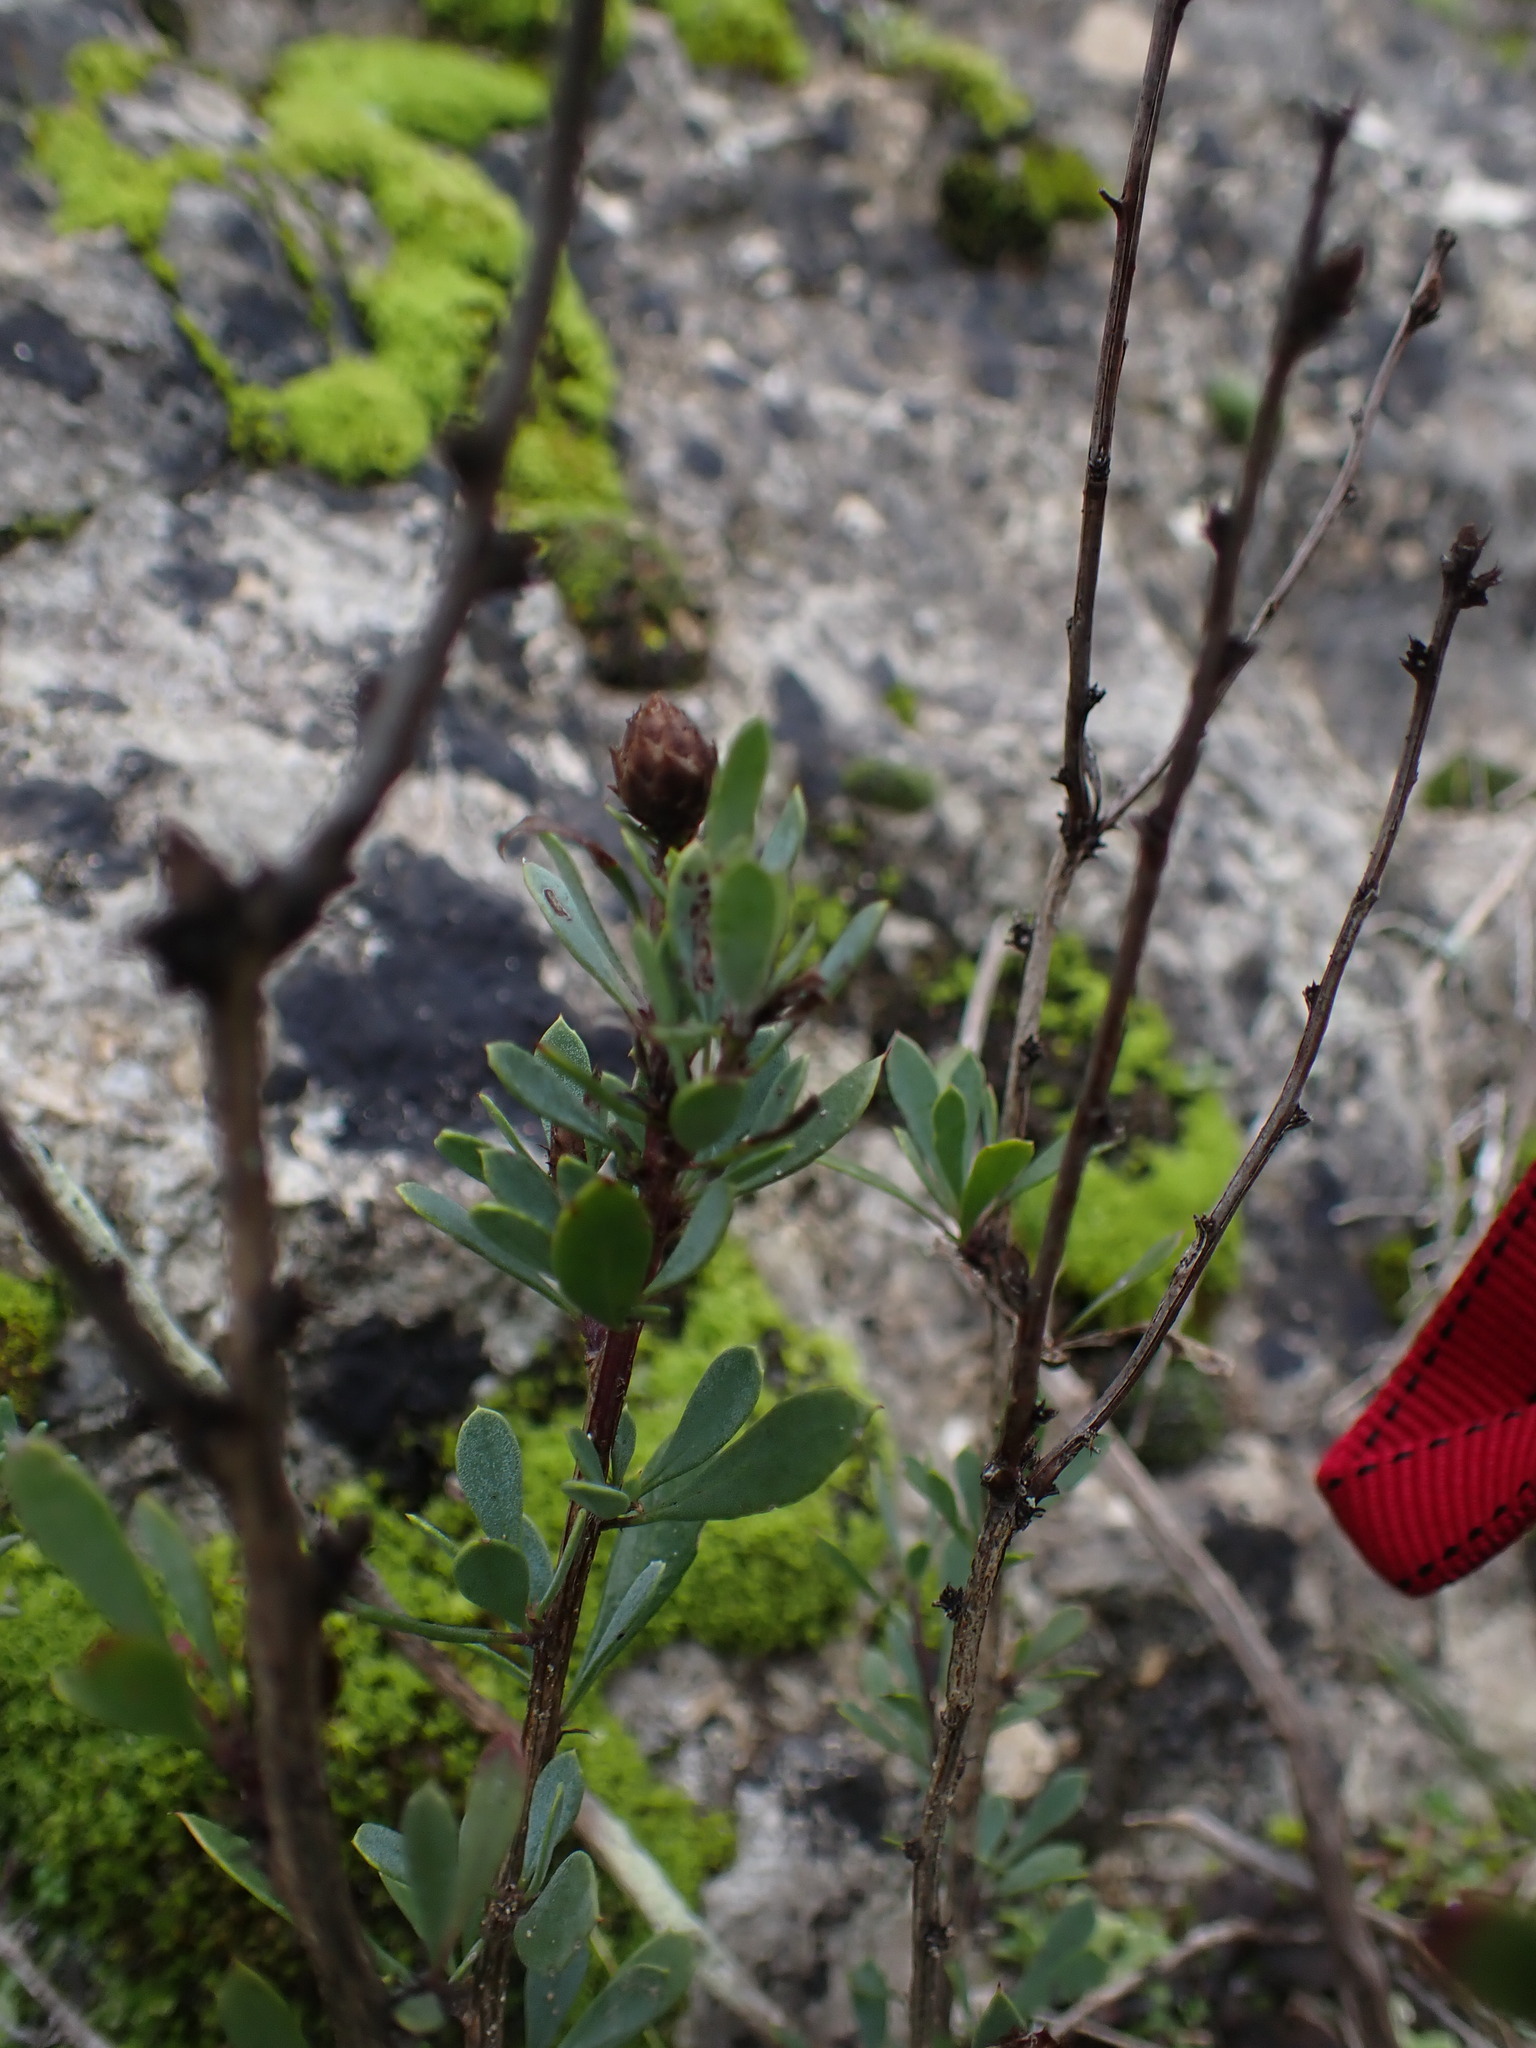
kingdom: Plantae
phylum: Tracheophyta
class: Magnoliopsida
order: Lamiales
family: Plantaginaceae
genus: Globularia
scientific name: Globularia alypum
